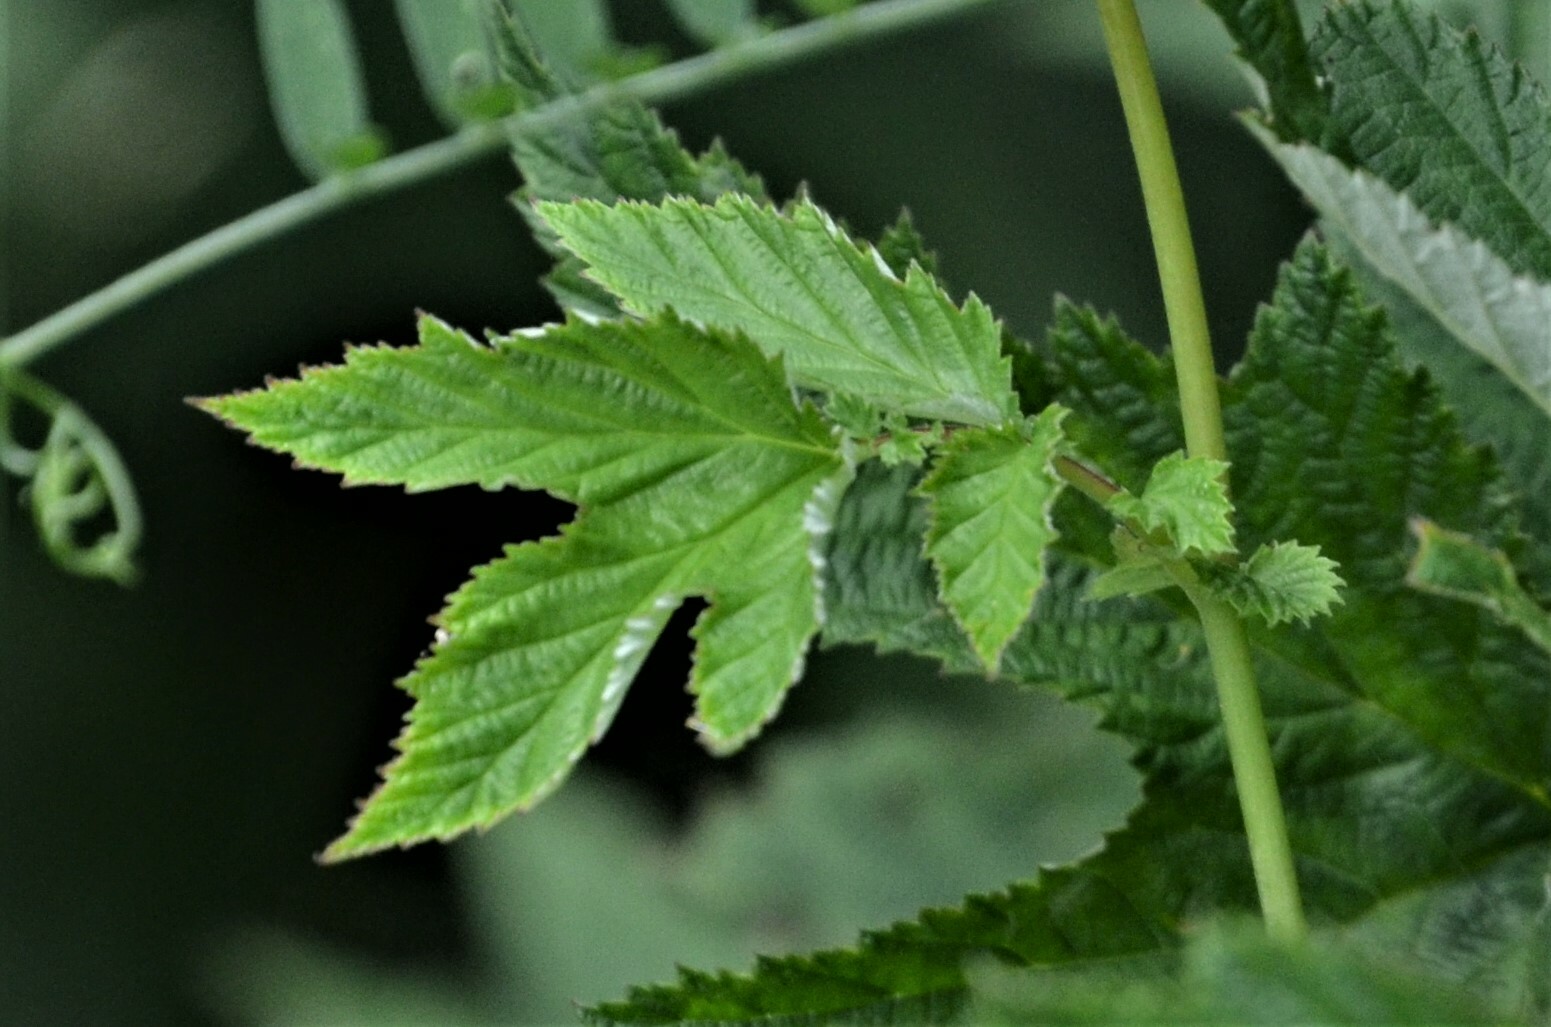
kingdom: Plantae
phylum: Tracheophyta
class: Magnoliopsida
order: Rosales
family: Rosaceae
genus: Filipendula
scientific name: Filipendula ulmaria
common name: Meadowsweet
